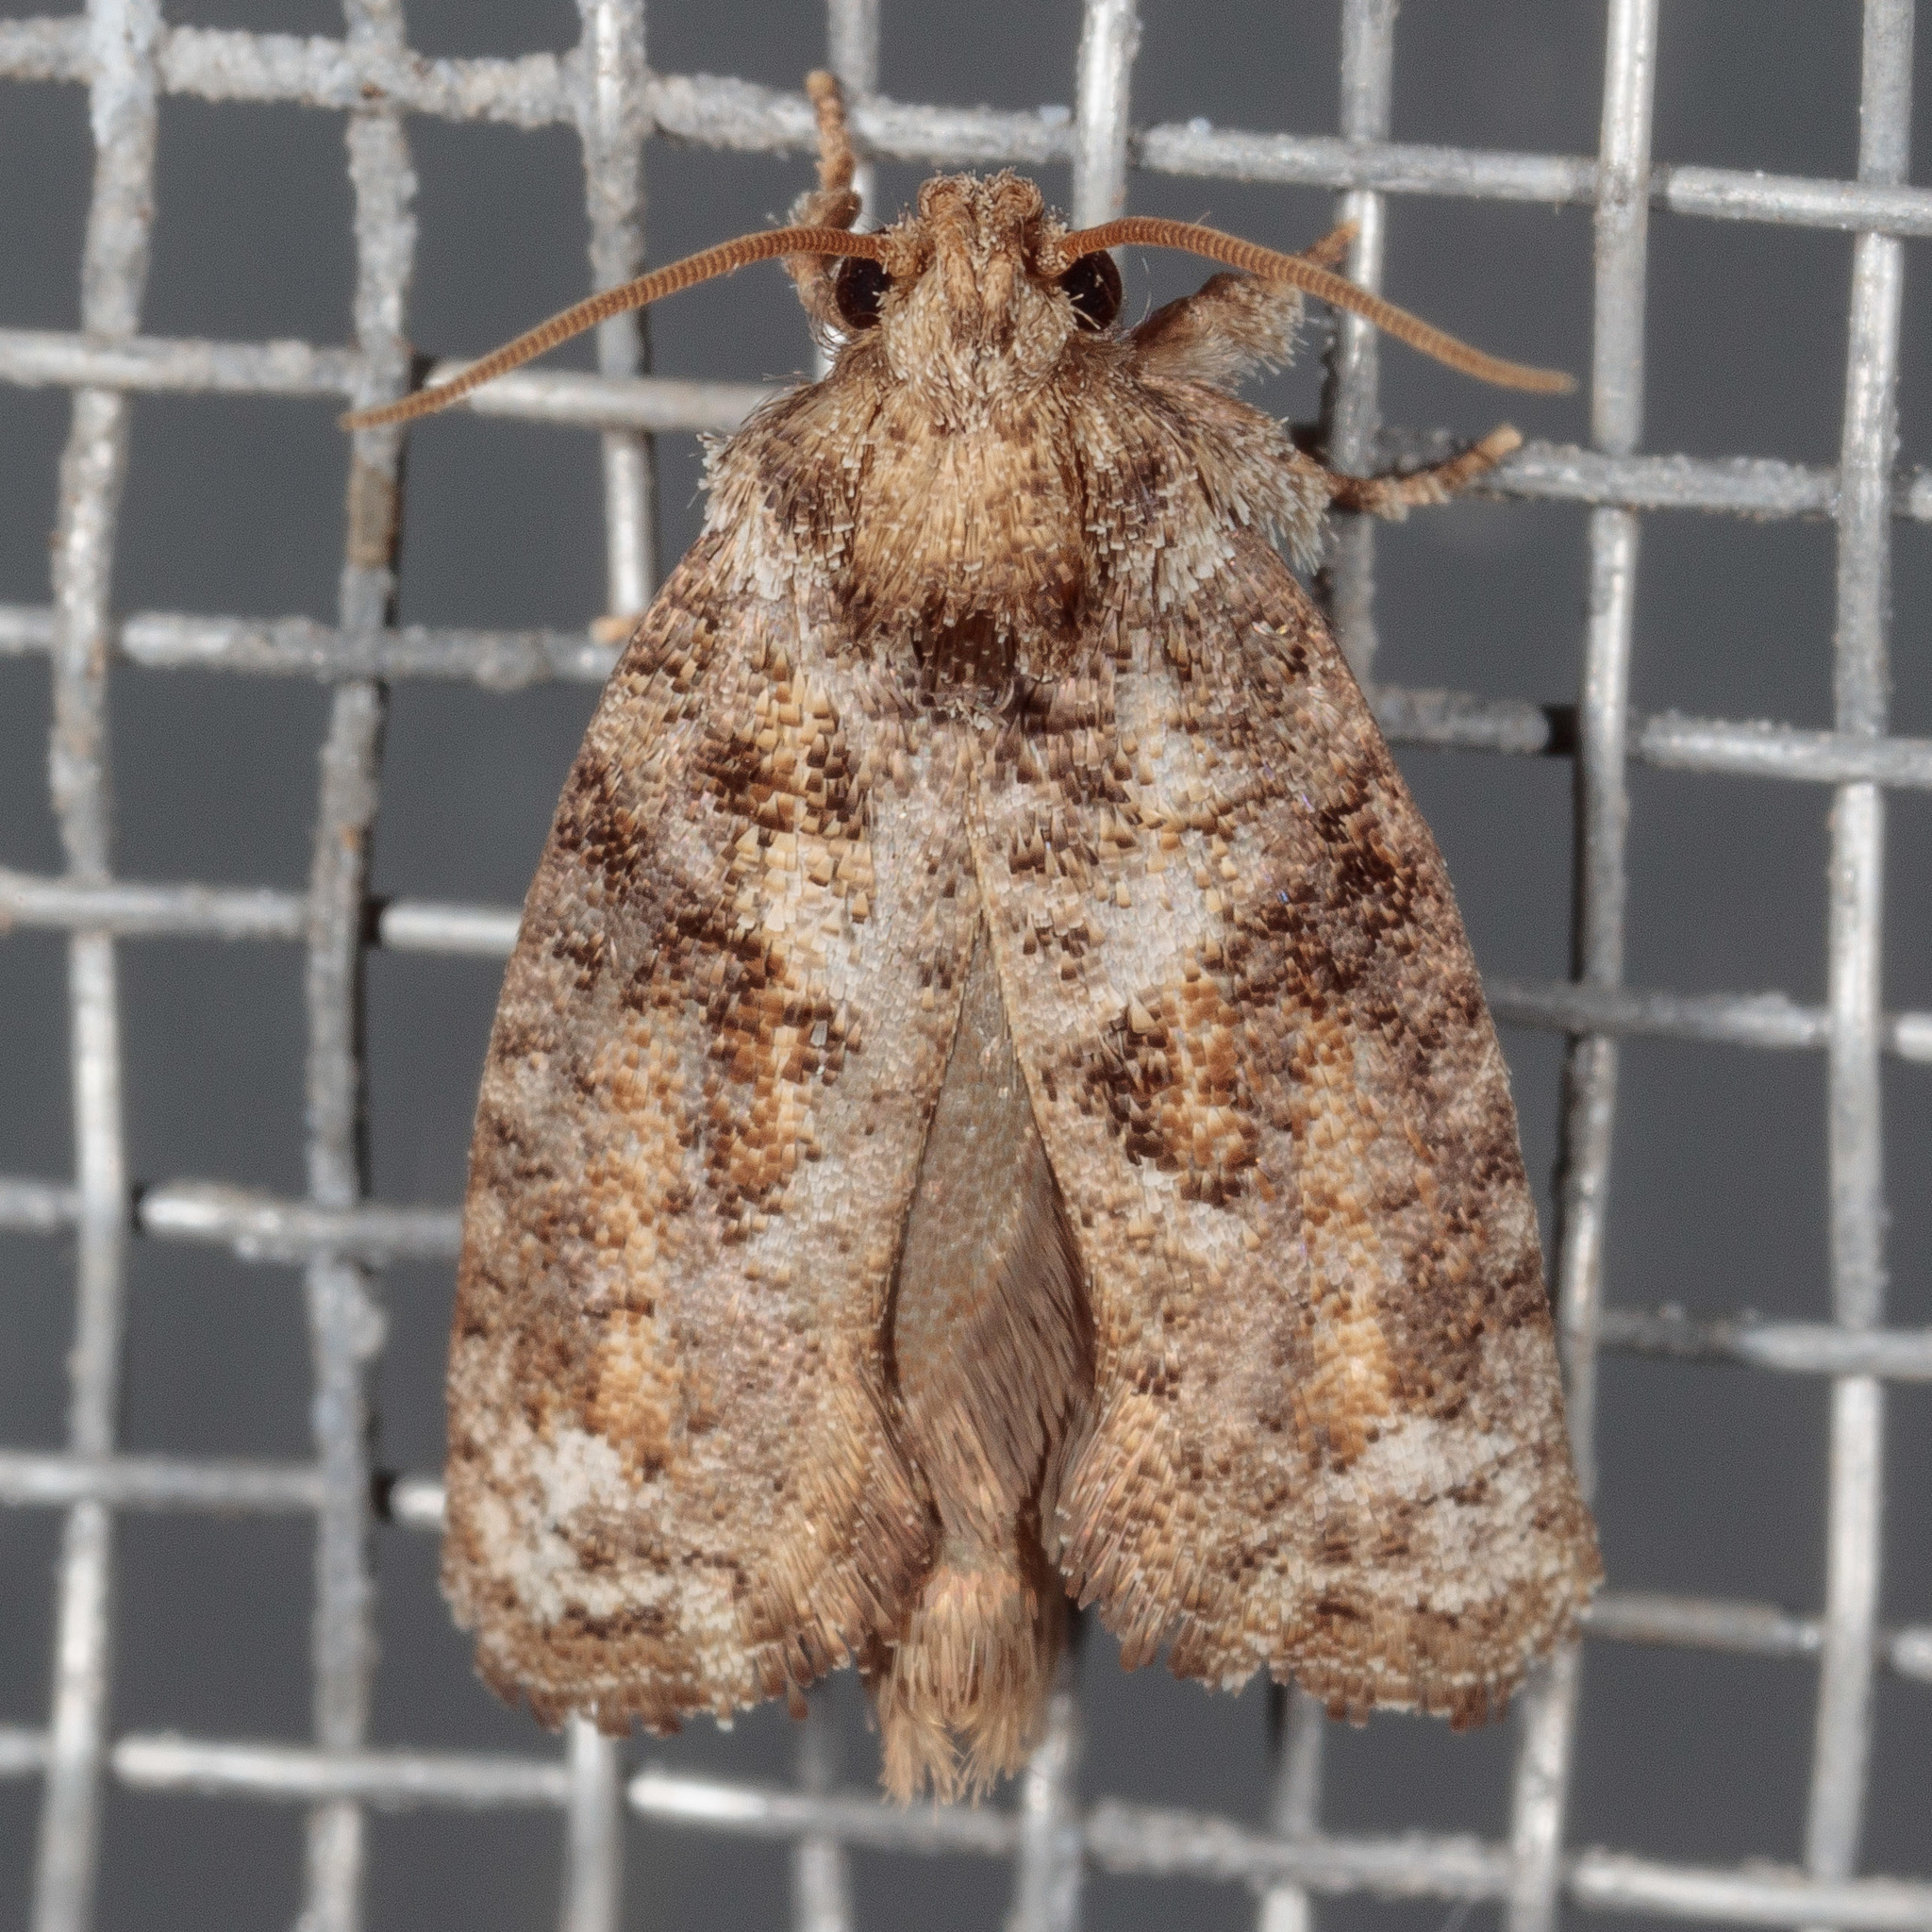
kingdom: Animalia
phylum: Arthropoda
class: Insecta
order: Lepidoptera
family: Tineidae
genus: Acrolophus
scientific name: Acrolophus piger
